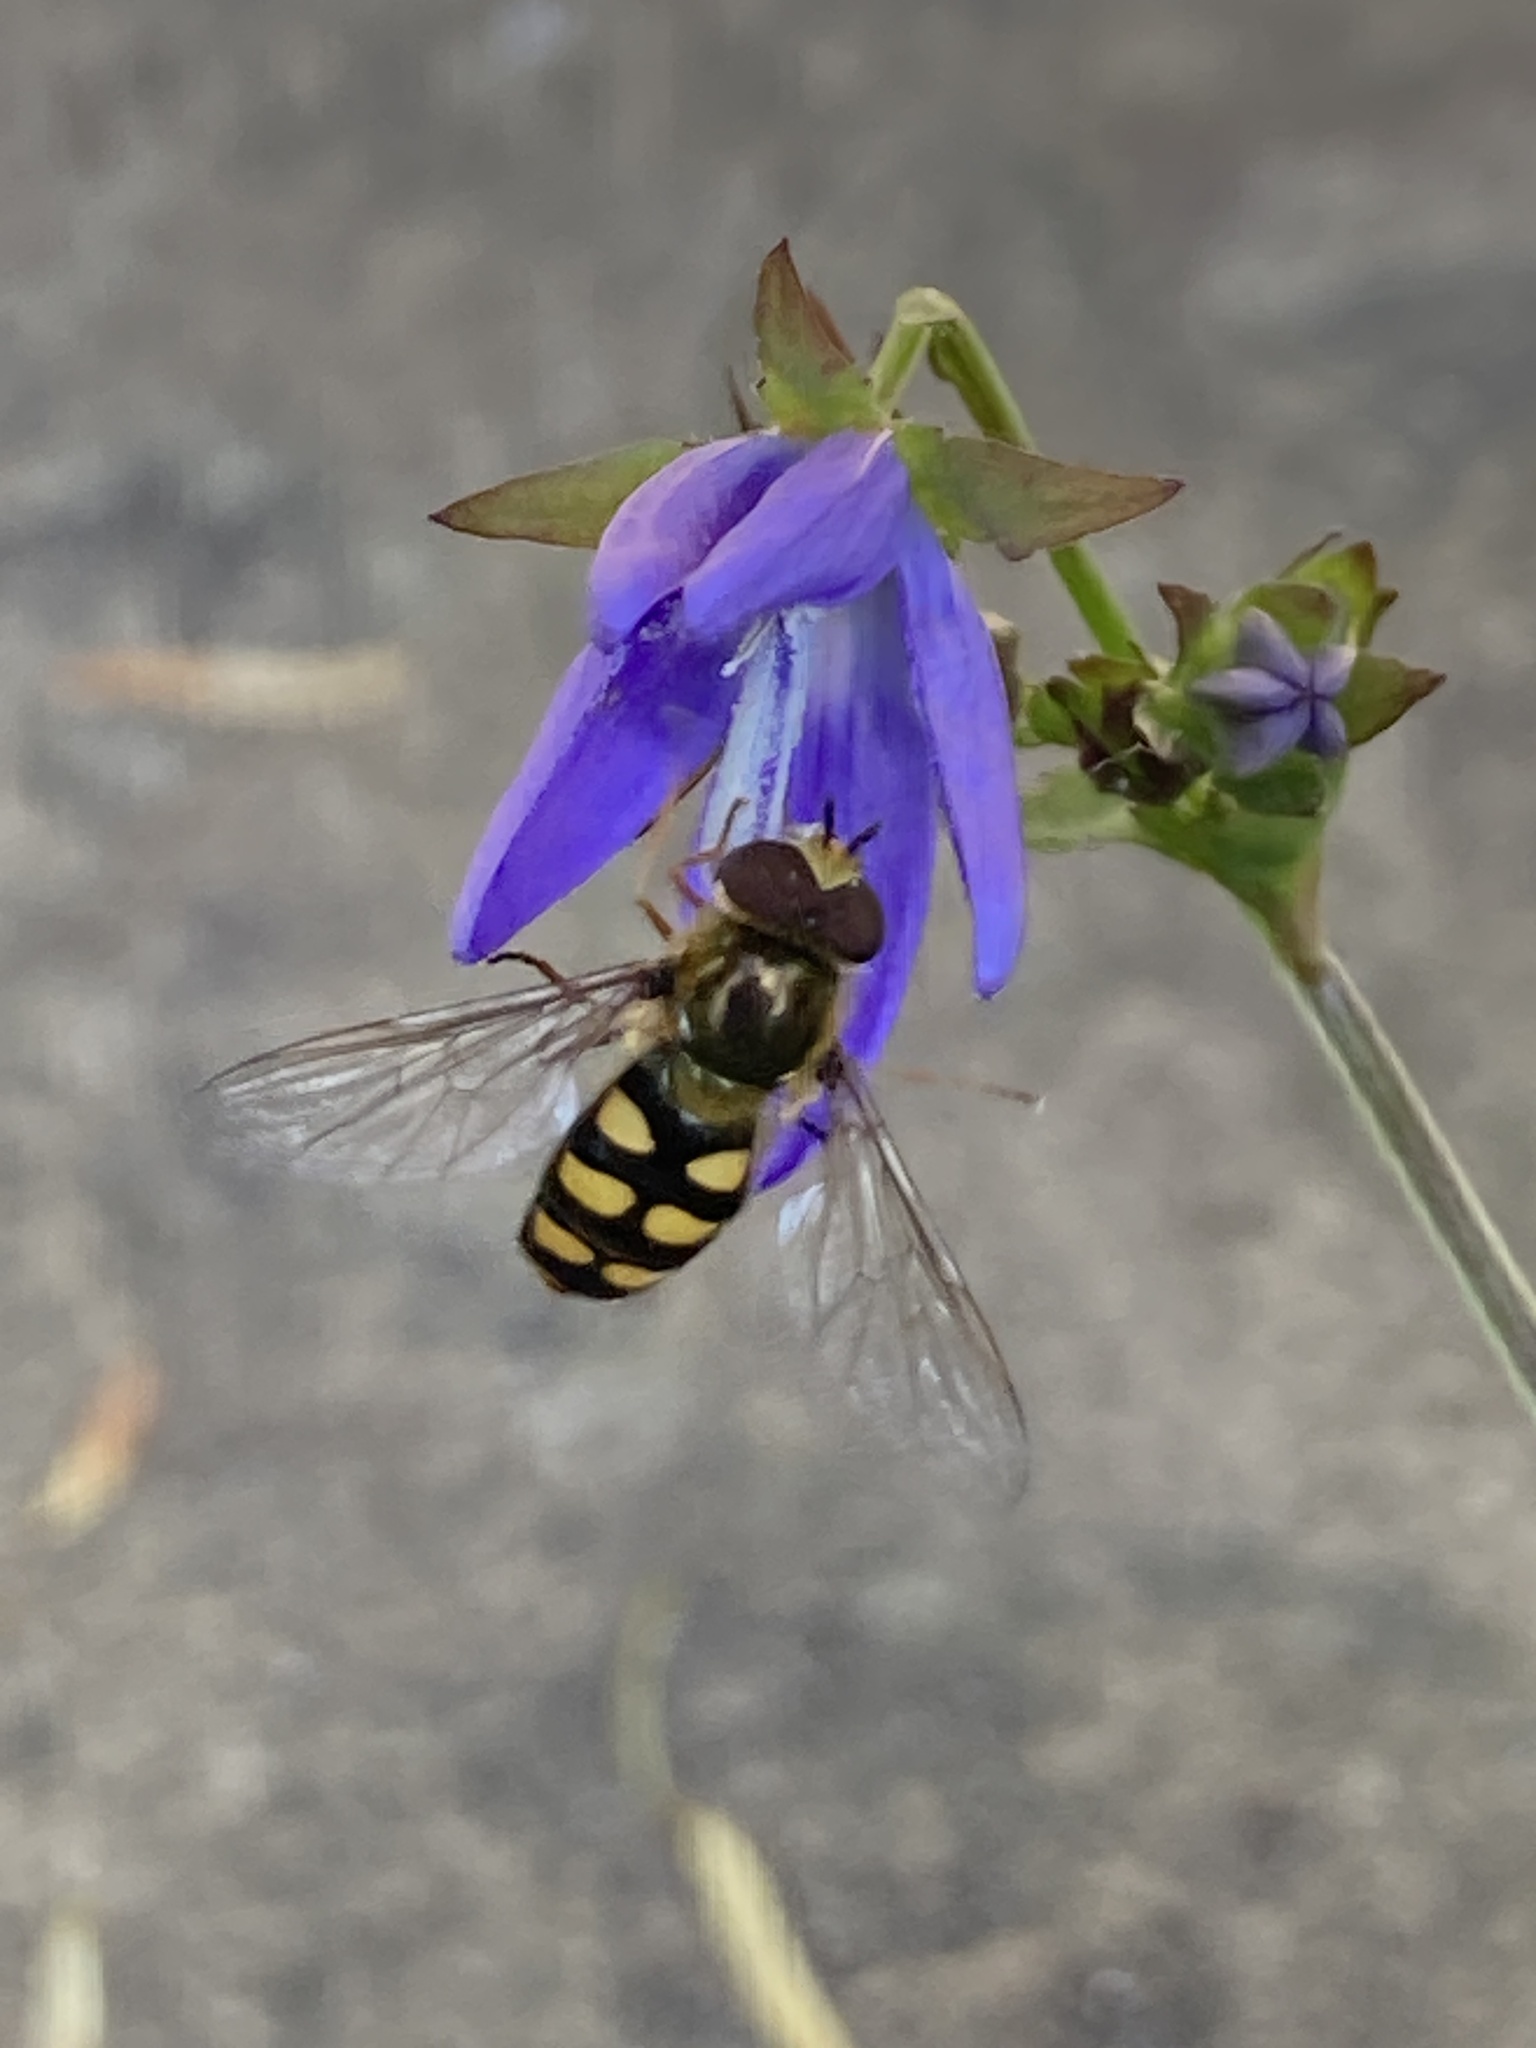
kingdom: Animalia
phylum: Arthropoda
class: Insecta
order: Diptera
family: Syrphidae
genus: Eupeodes
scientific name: Eupeodes
